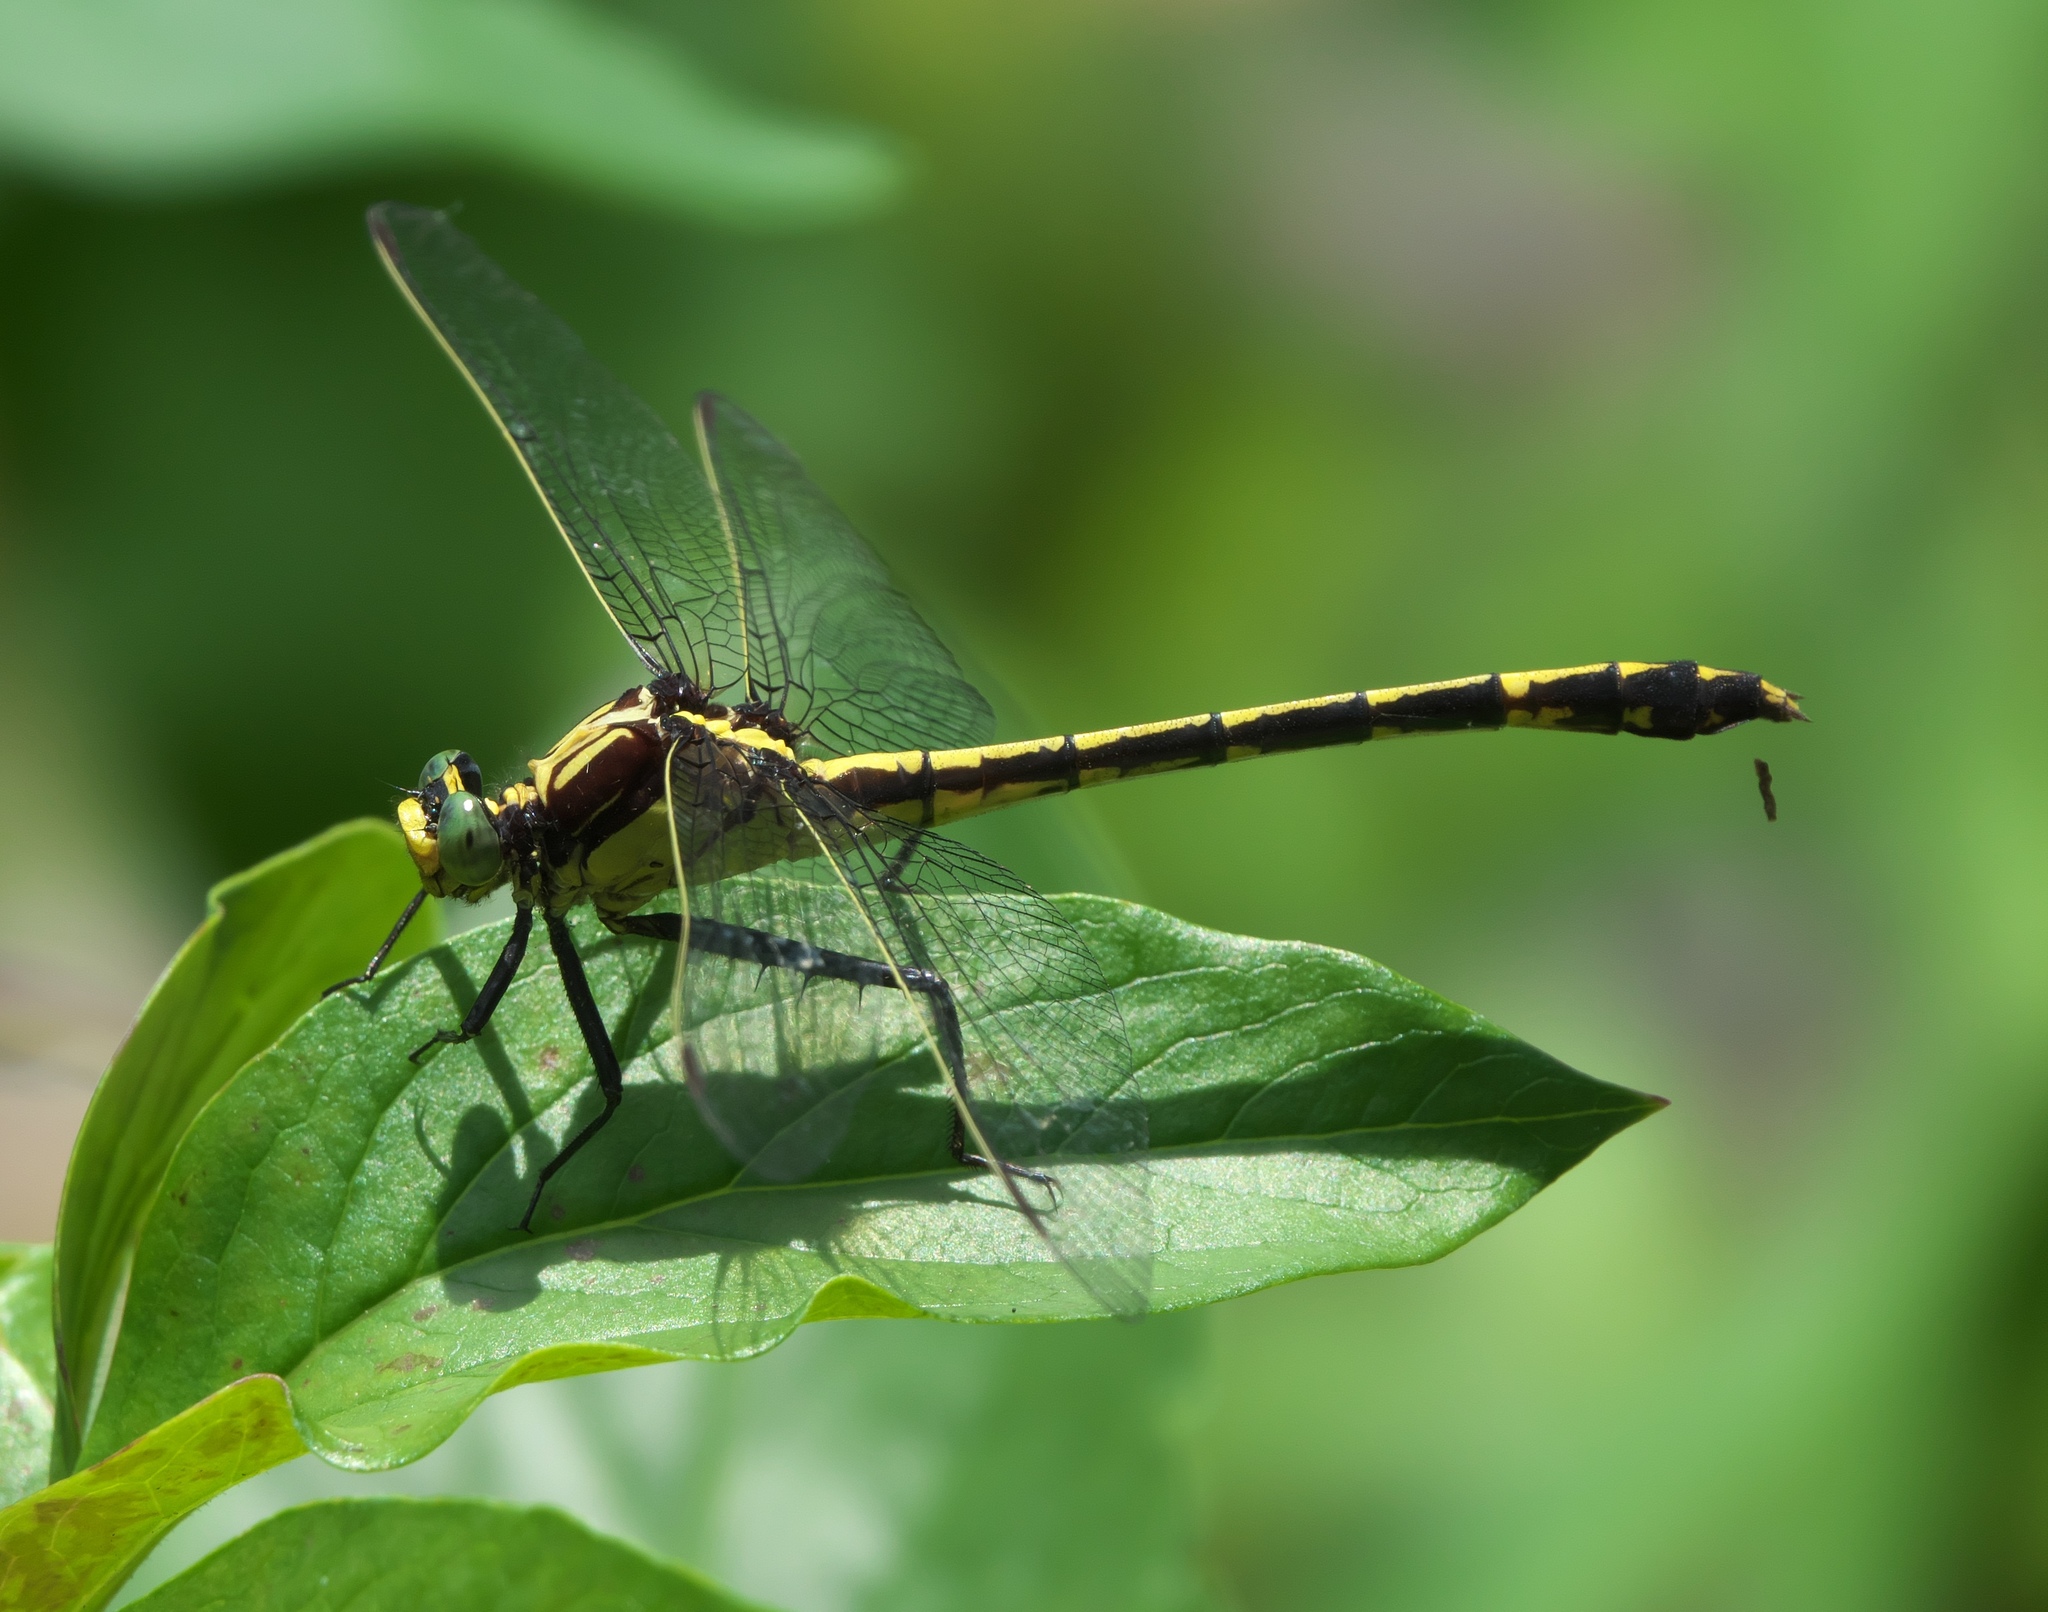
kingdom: Animalia
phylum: Arthropoda
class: Insecta
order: Odonata
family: Gomphidae
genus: Dromogomphus
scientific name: Dromogomphus spinosus
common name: Black-shouldered spinyleg
